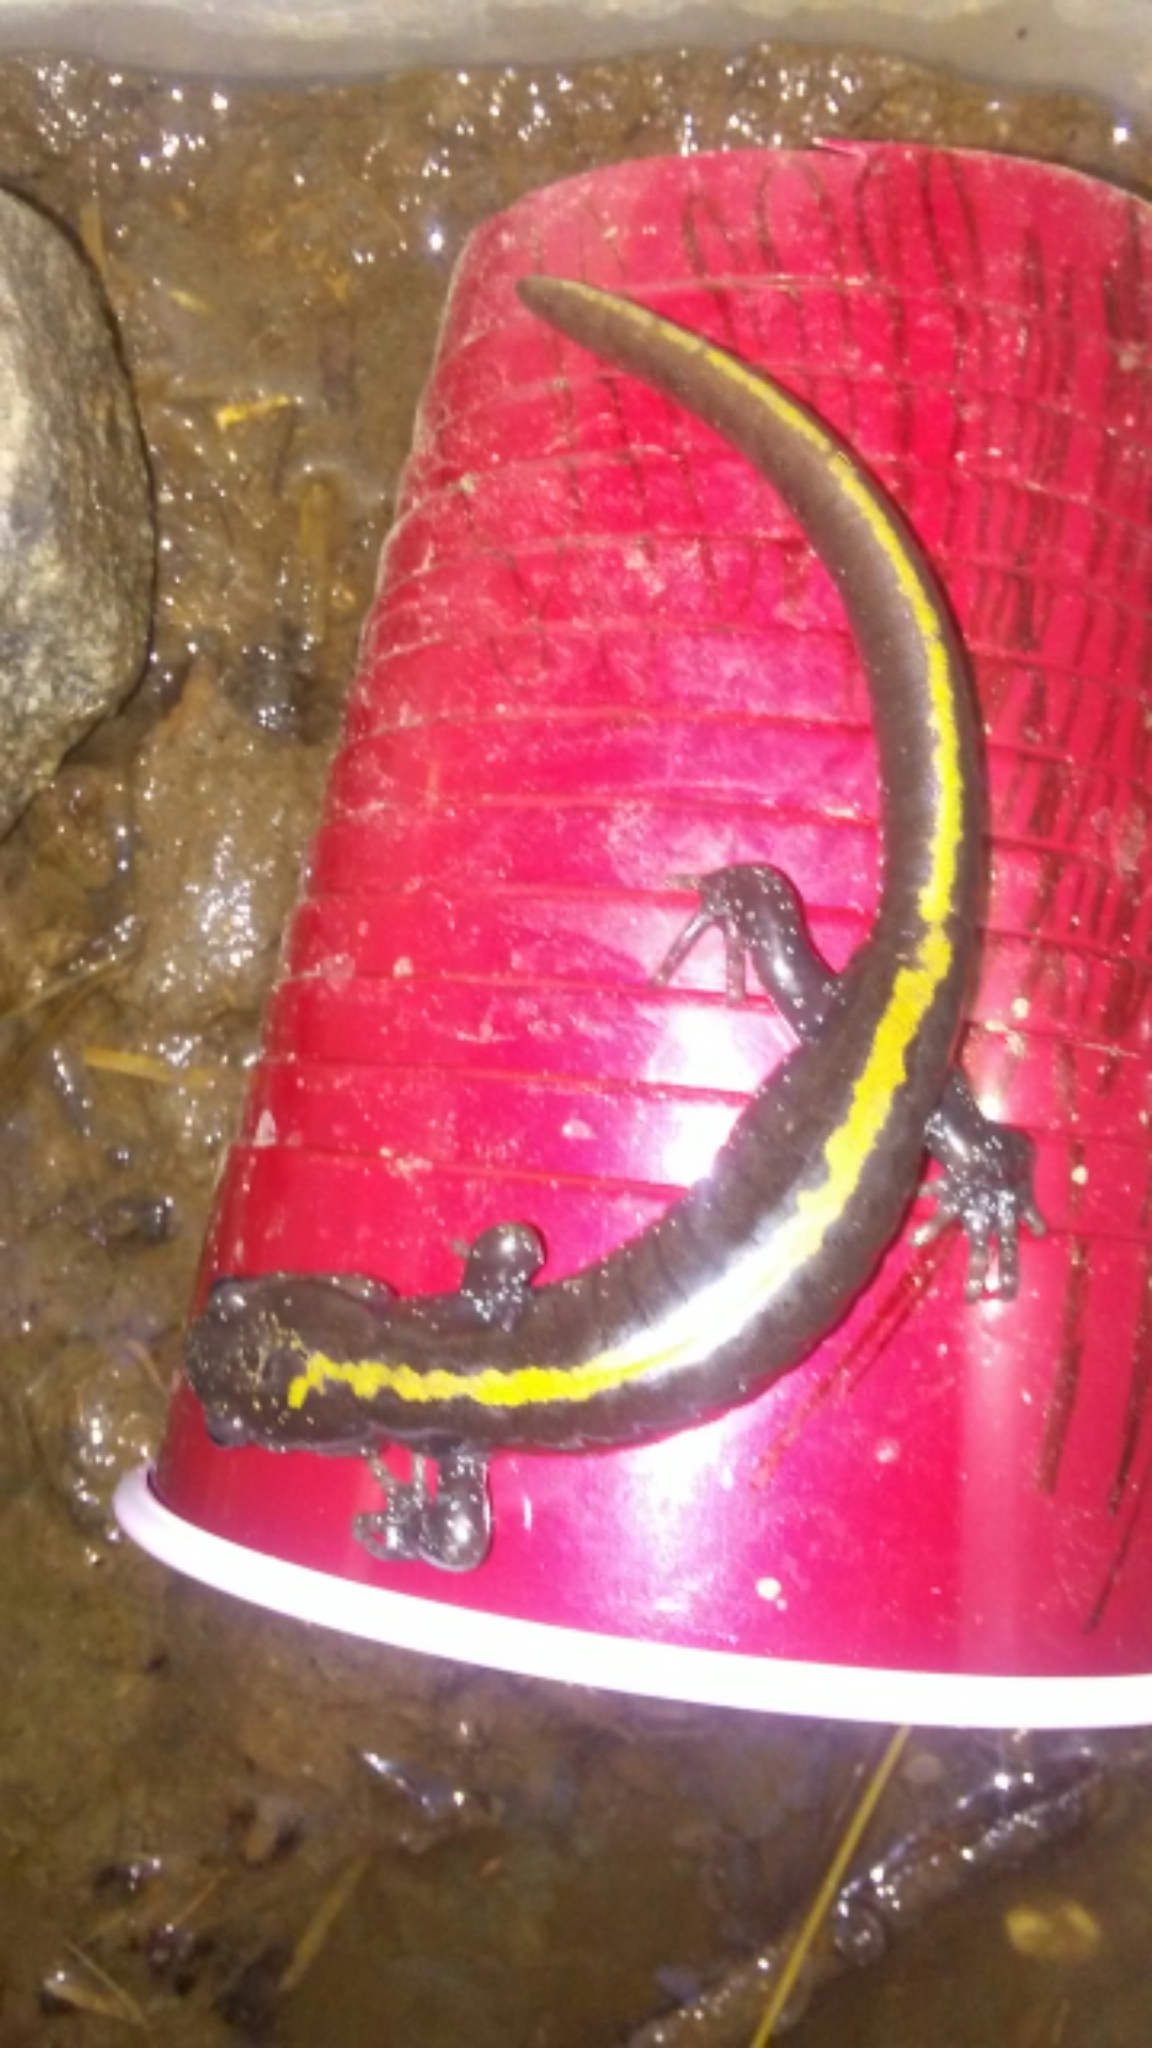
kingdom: Animalia
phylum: Chordata
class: Amphibia
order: Caudata
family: Ambystomatidae
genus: Ambystoma
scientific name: Ambystoma macrodactylum
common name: Long-toed salamander
